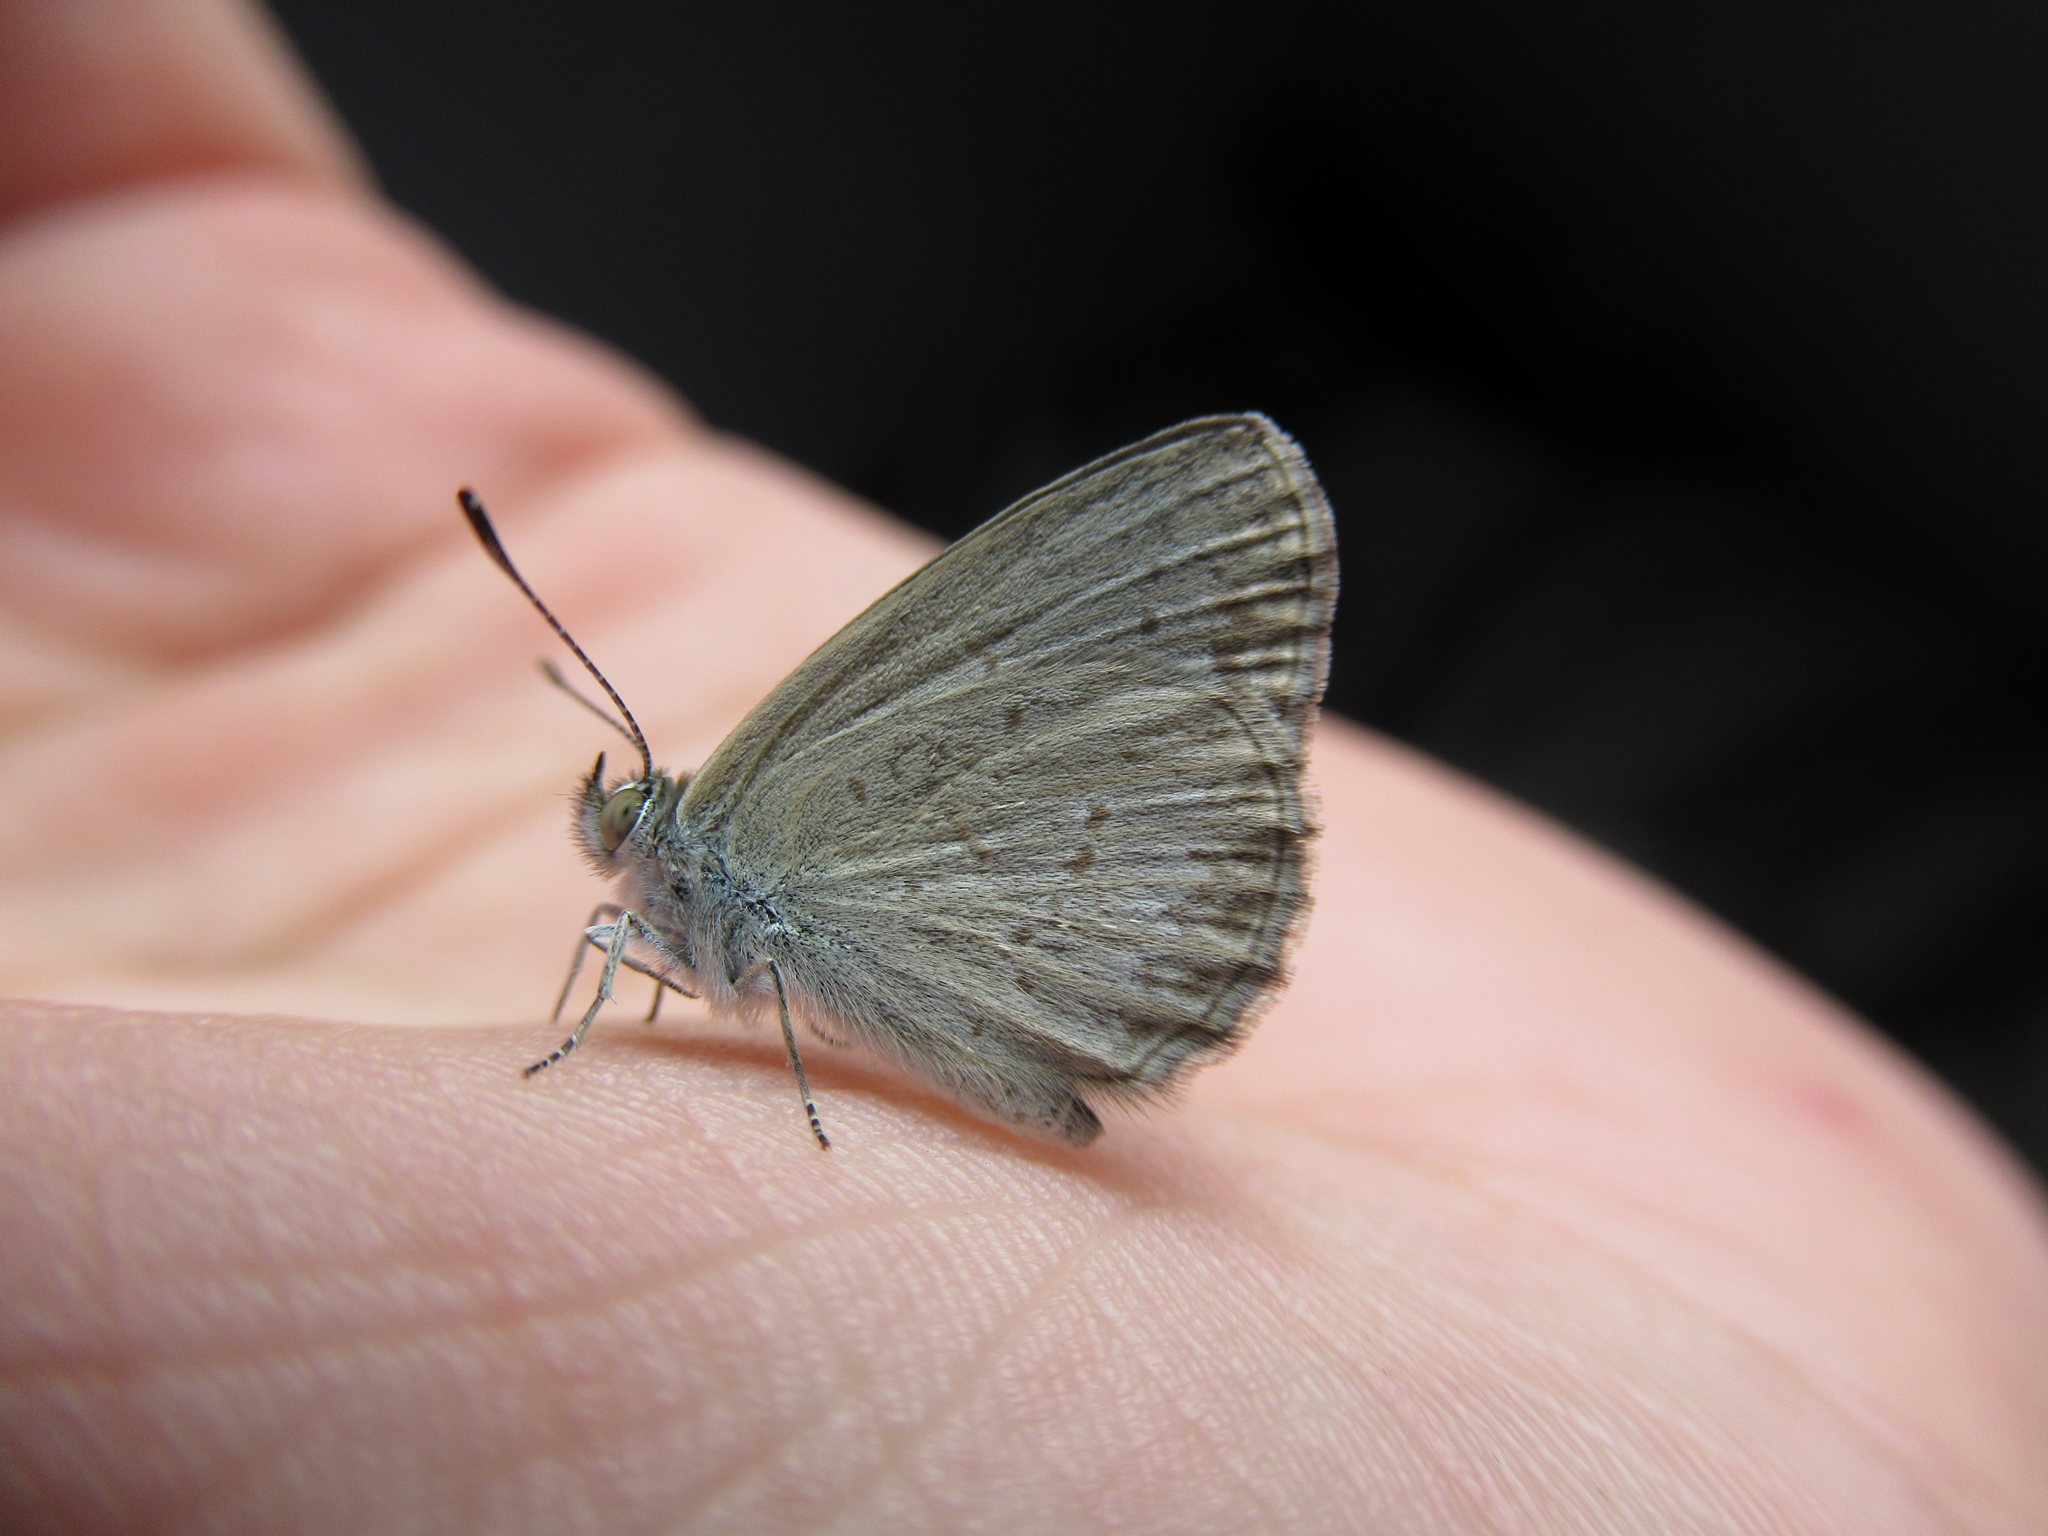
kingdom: Animalia
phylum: Arthropoda
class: Insecta
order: Lepidoptera
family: Lycaenidae
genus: Zizina
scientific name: Zizina labradus
